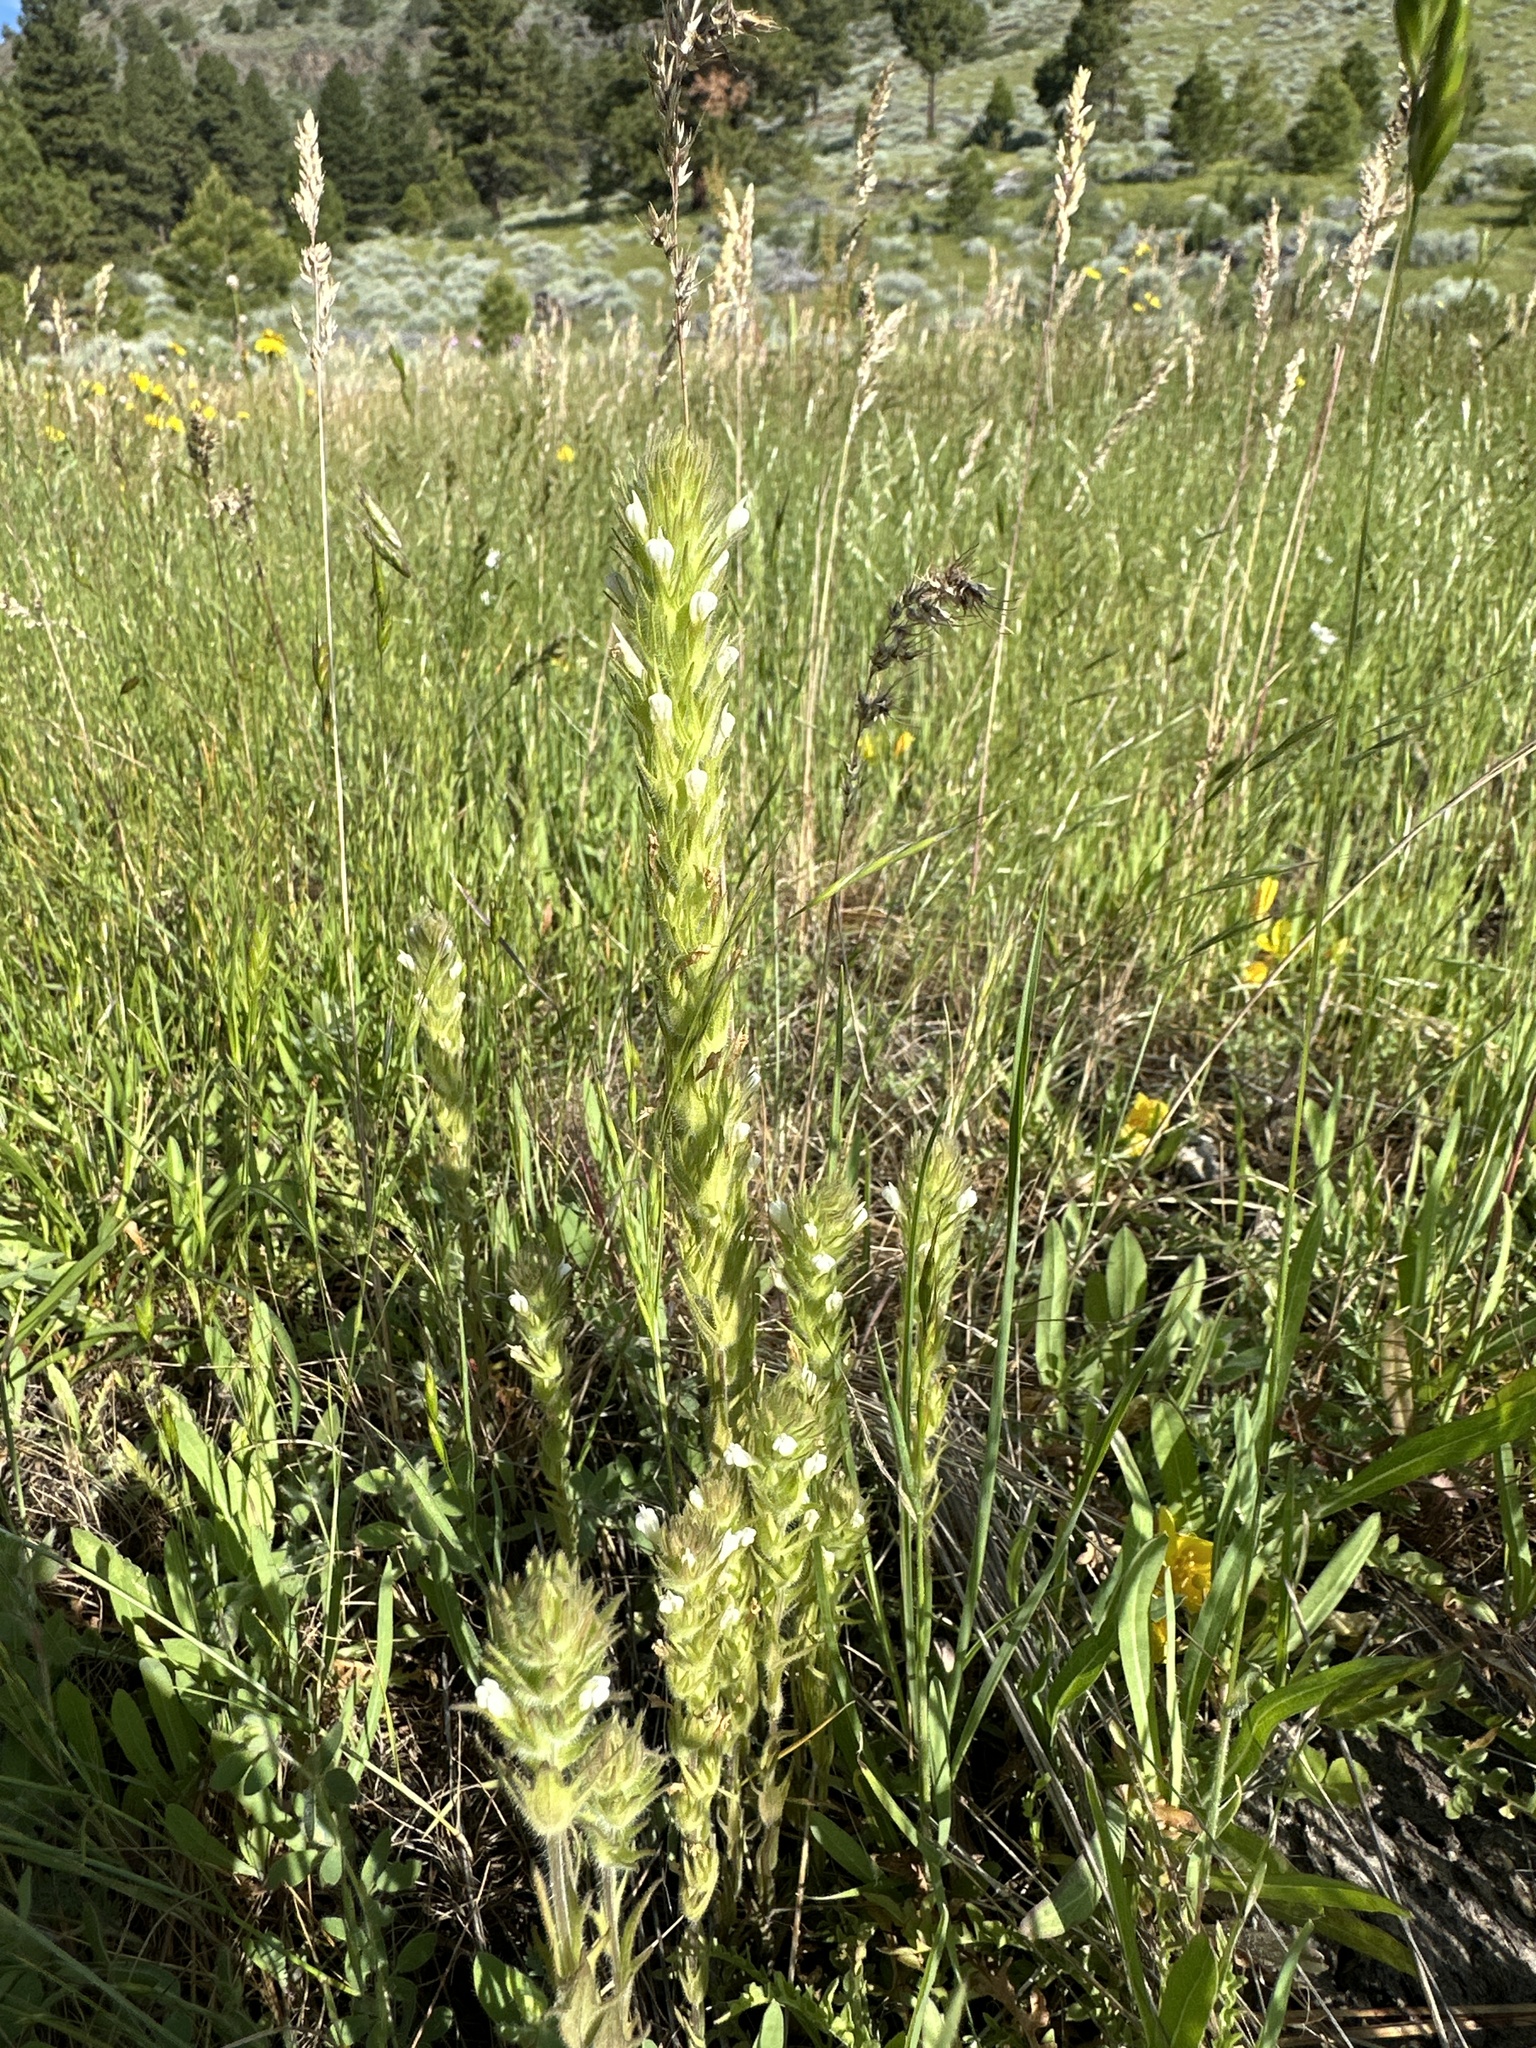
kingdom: Plantae
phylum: Tracheophyta
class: Magnoliopsida
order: Lamiales
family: Orobanchaceae
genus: Castilleja
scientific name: Castilleja tenuis
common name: Hairy indian paintbrush
